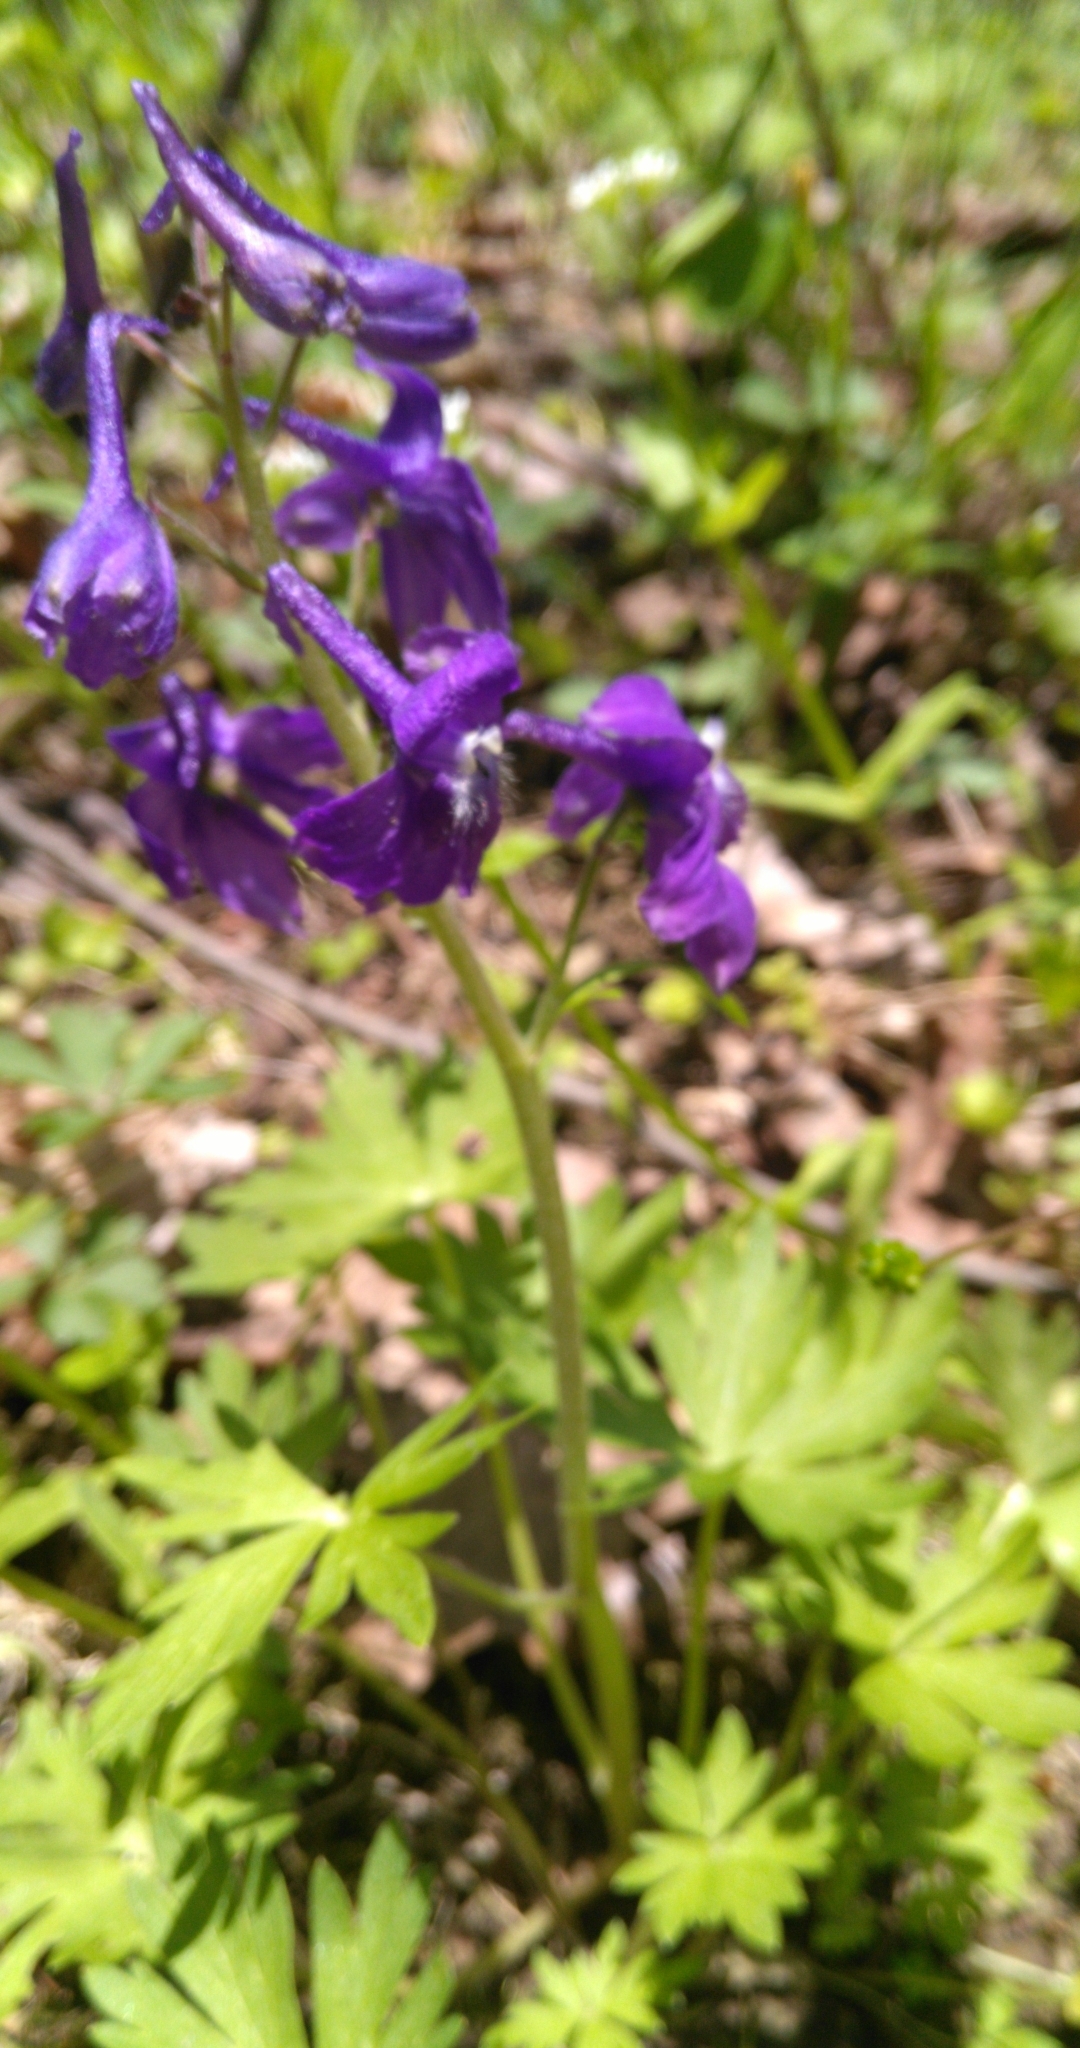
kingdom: Plantae
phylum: Tracheophyta
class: Magnoliopsida
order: Ranunculales
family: Ranunculaceae
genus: Delphinium
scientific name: Delphinium tricorne
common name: Dwarf larkspur
